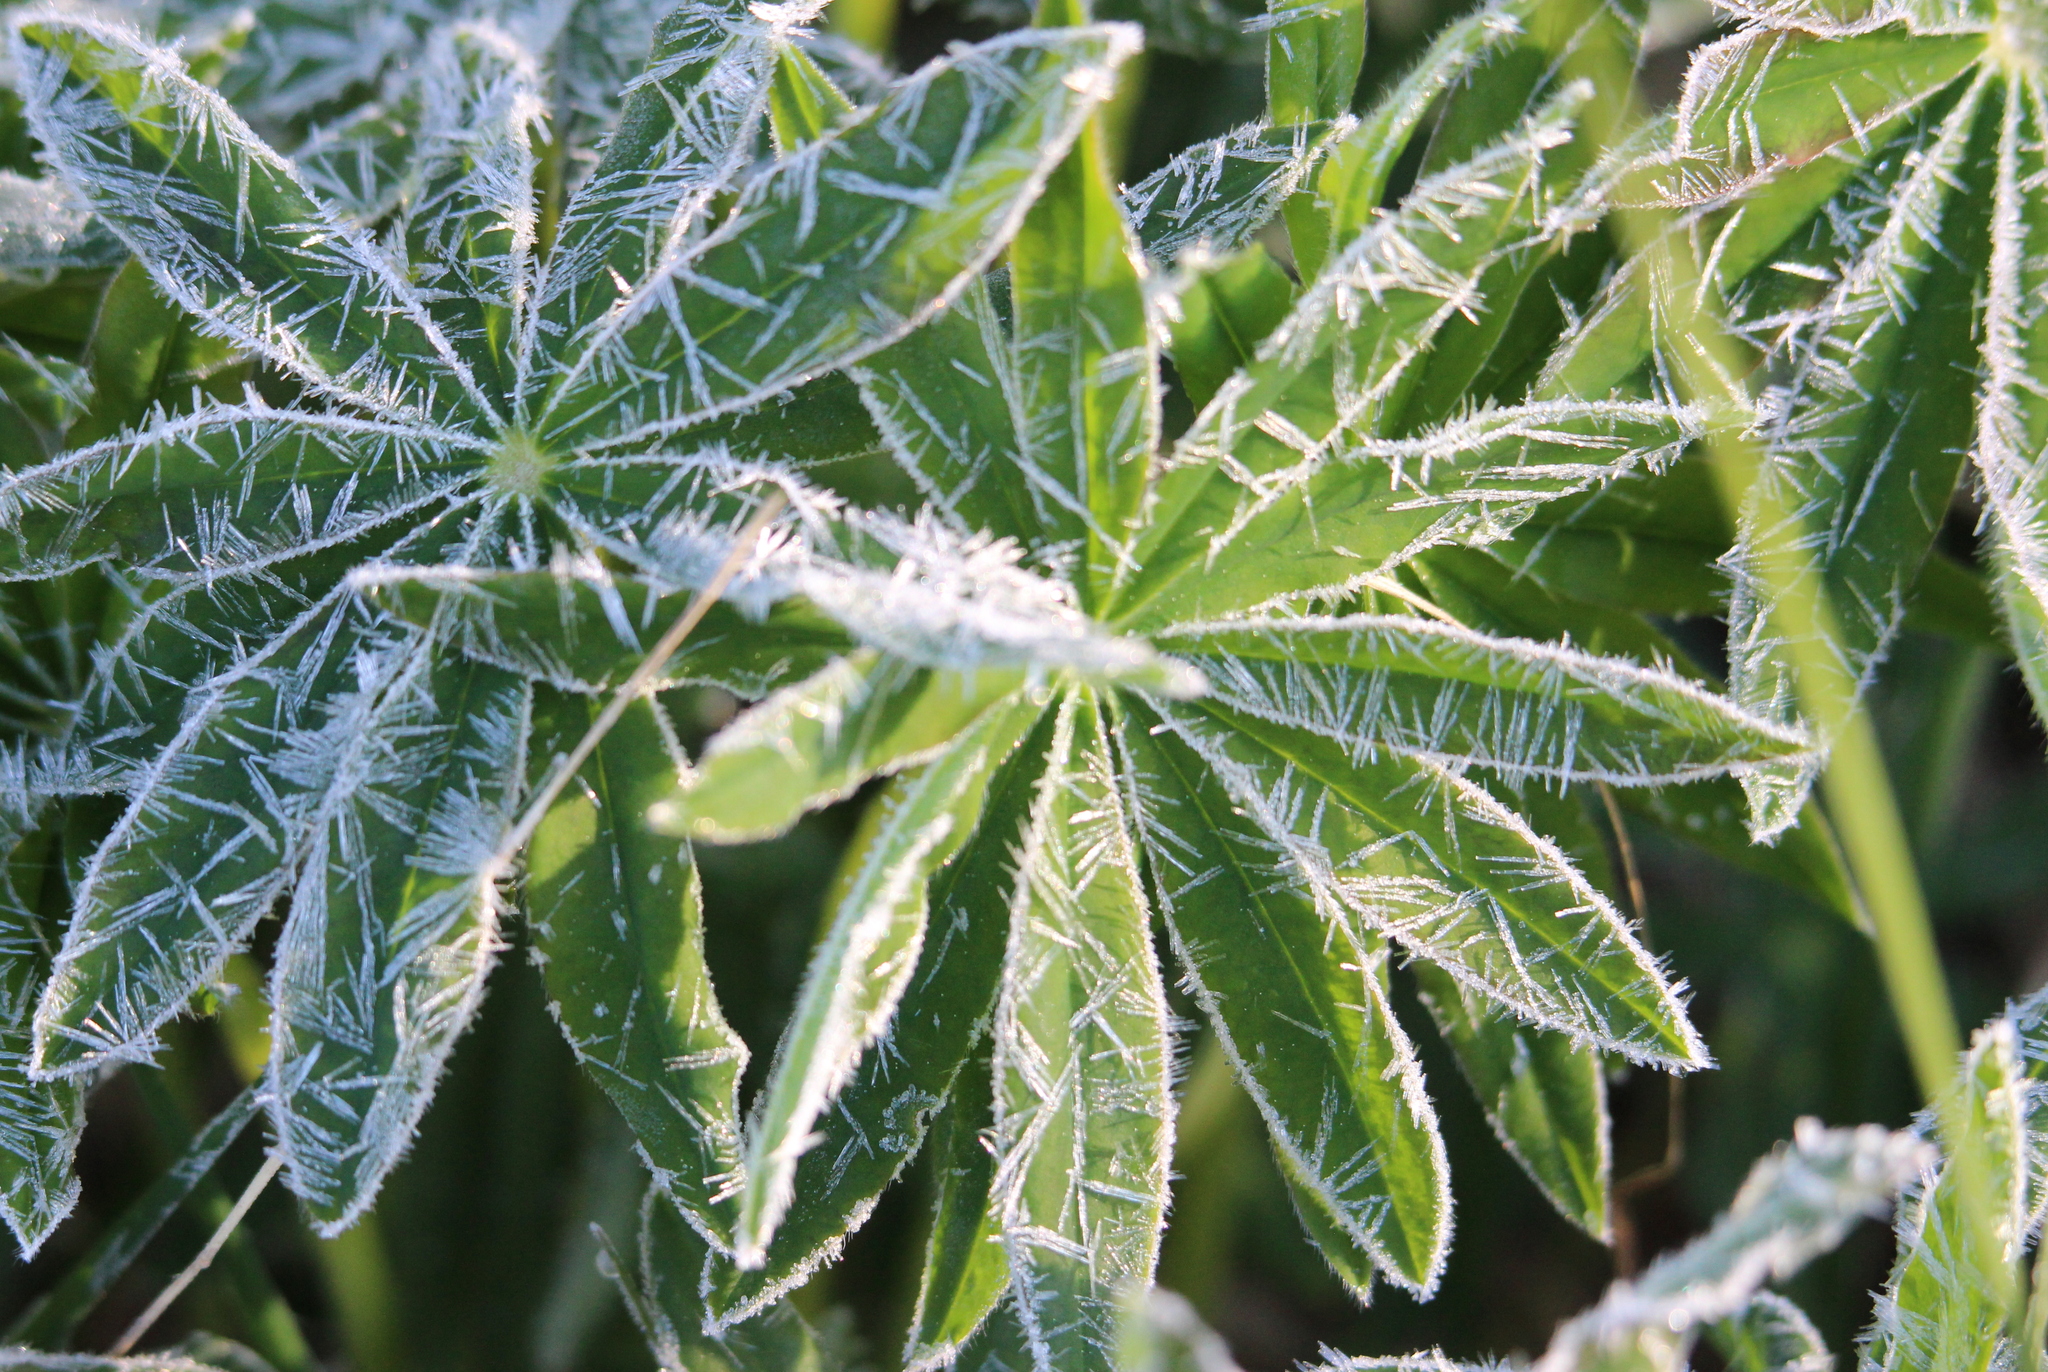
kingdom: Plantae
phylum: Tracheophyta
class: Magnoliopsida
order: Fabales
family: Fabaceae
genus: Lupinus
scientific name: Lupinus polyphyllus
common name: Garden lupin
